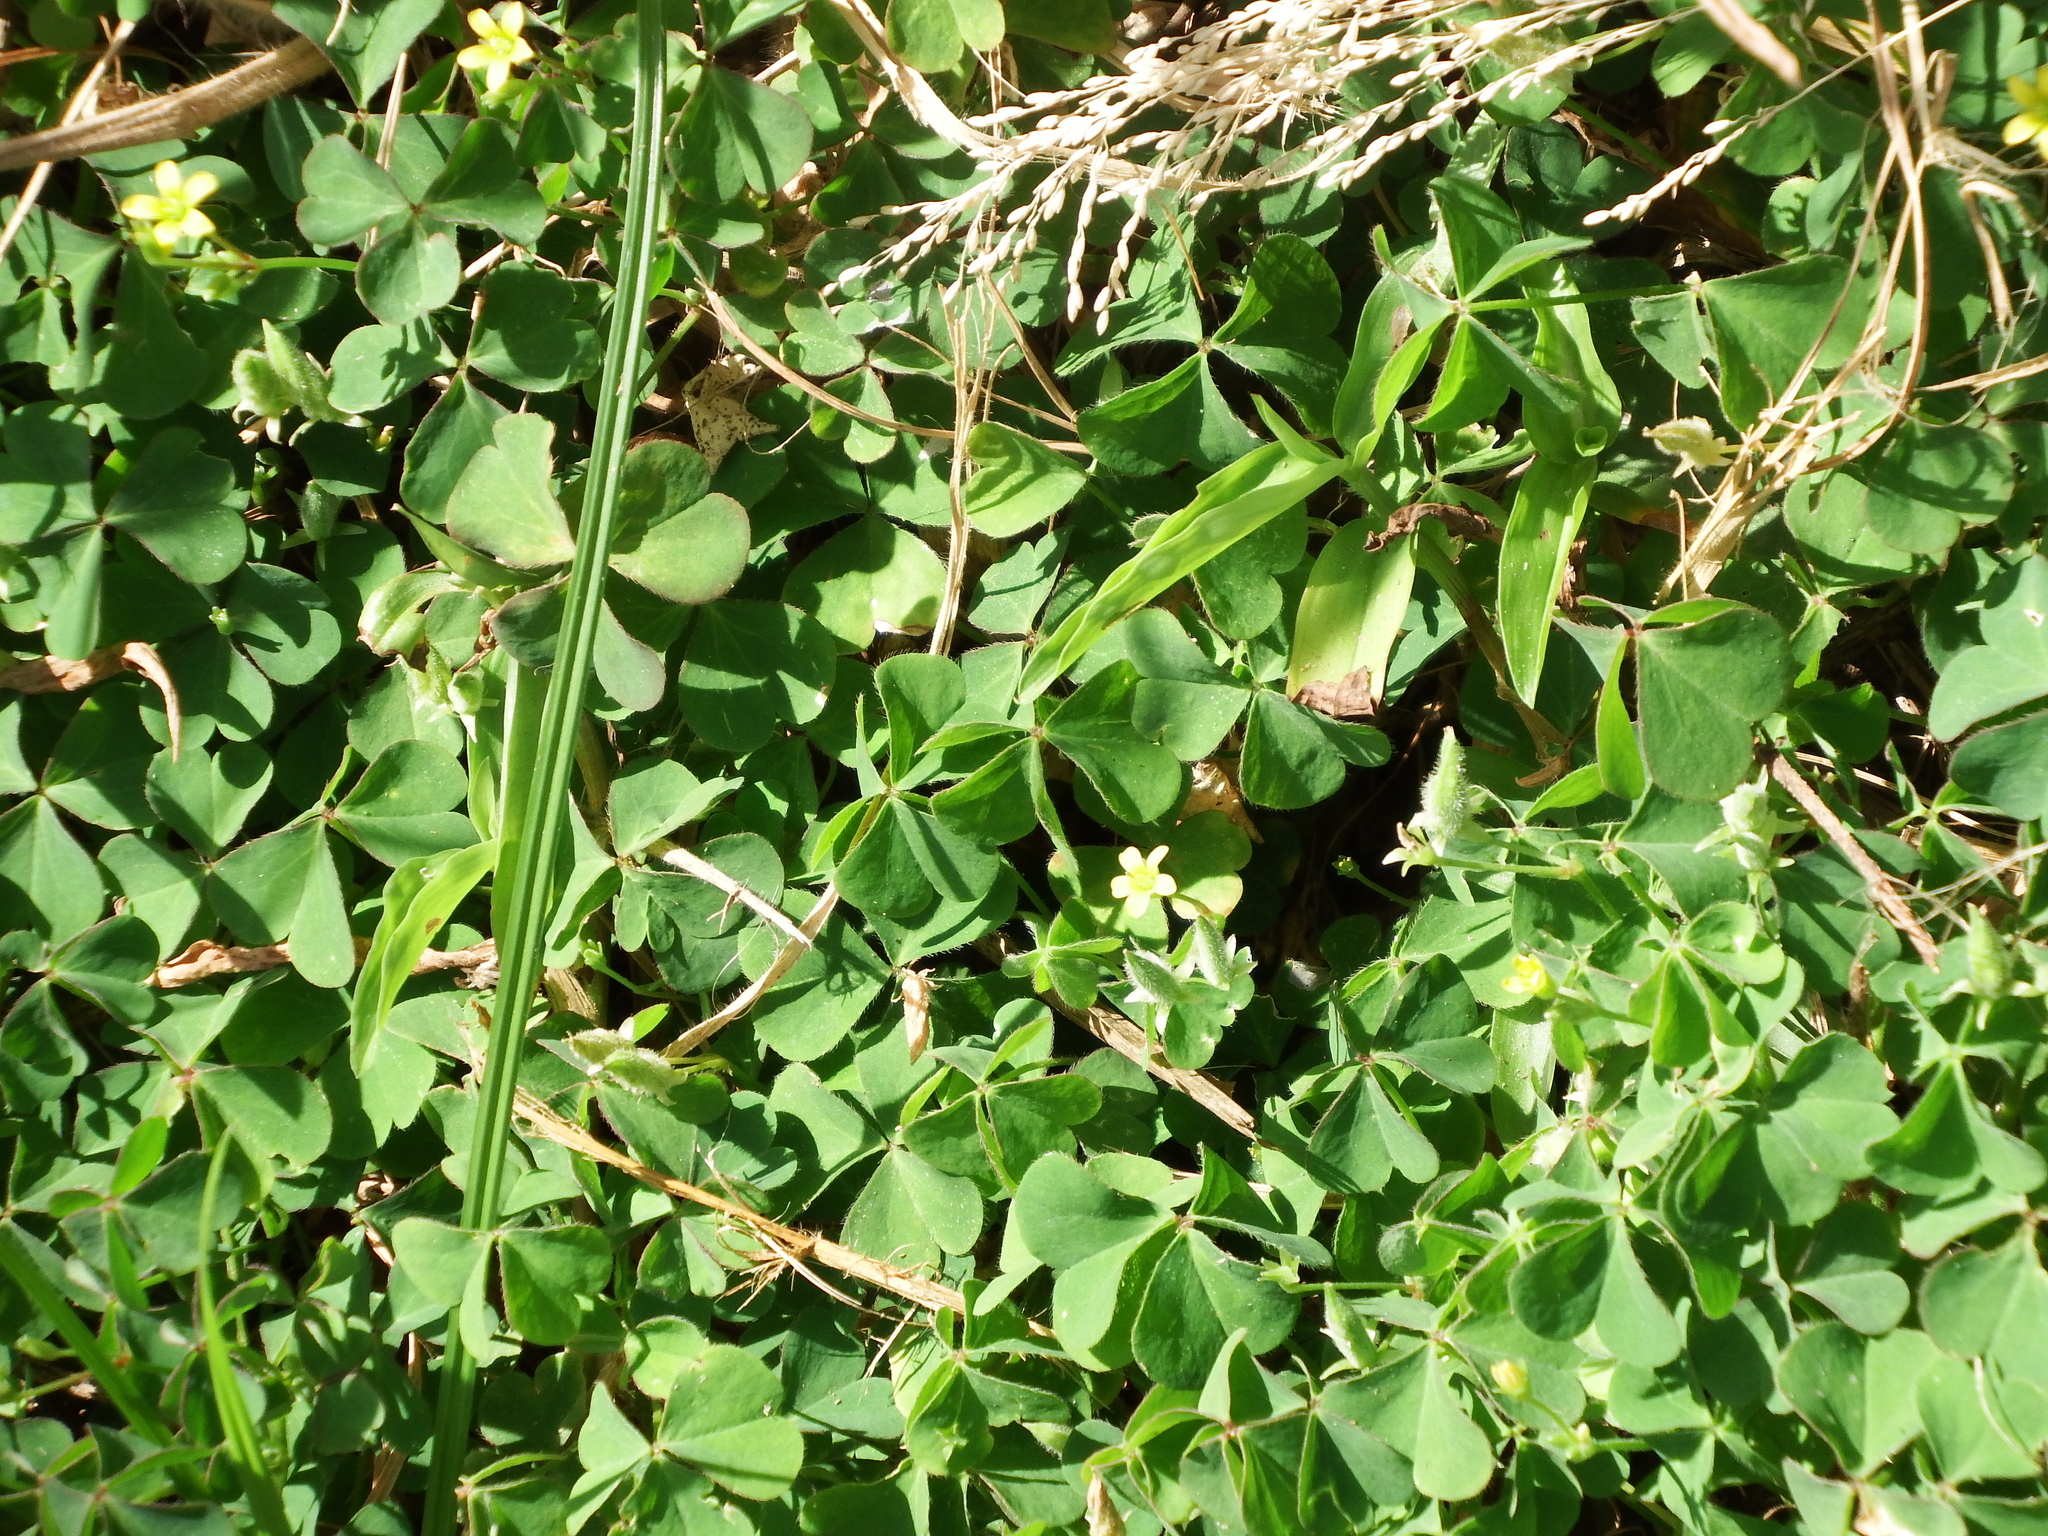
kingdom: Plantae
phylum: Tracheophyta
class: Magnoliopsida
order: Oxalidales
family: Oxalidaceae
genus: Oxalis
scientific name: Oxalis corniculata
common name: Procumbent yellow-sorrel
